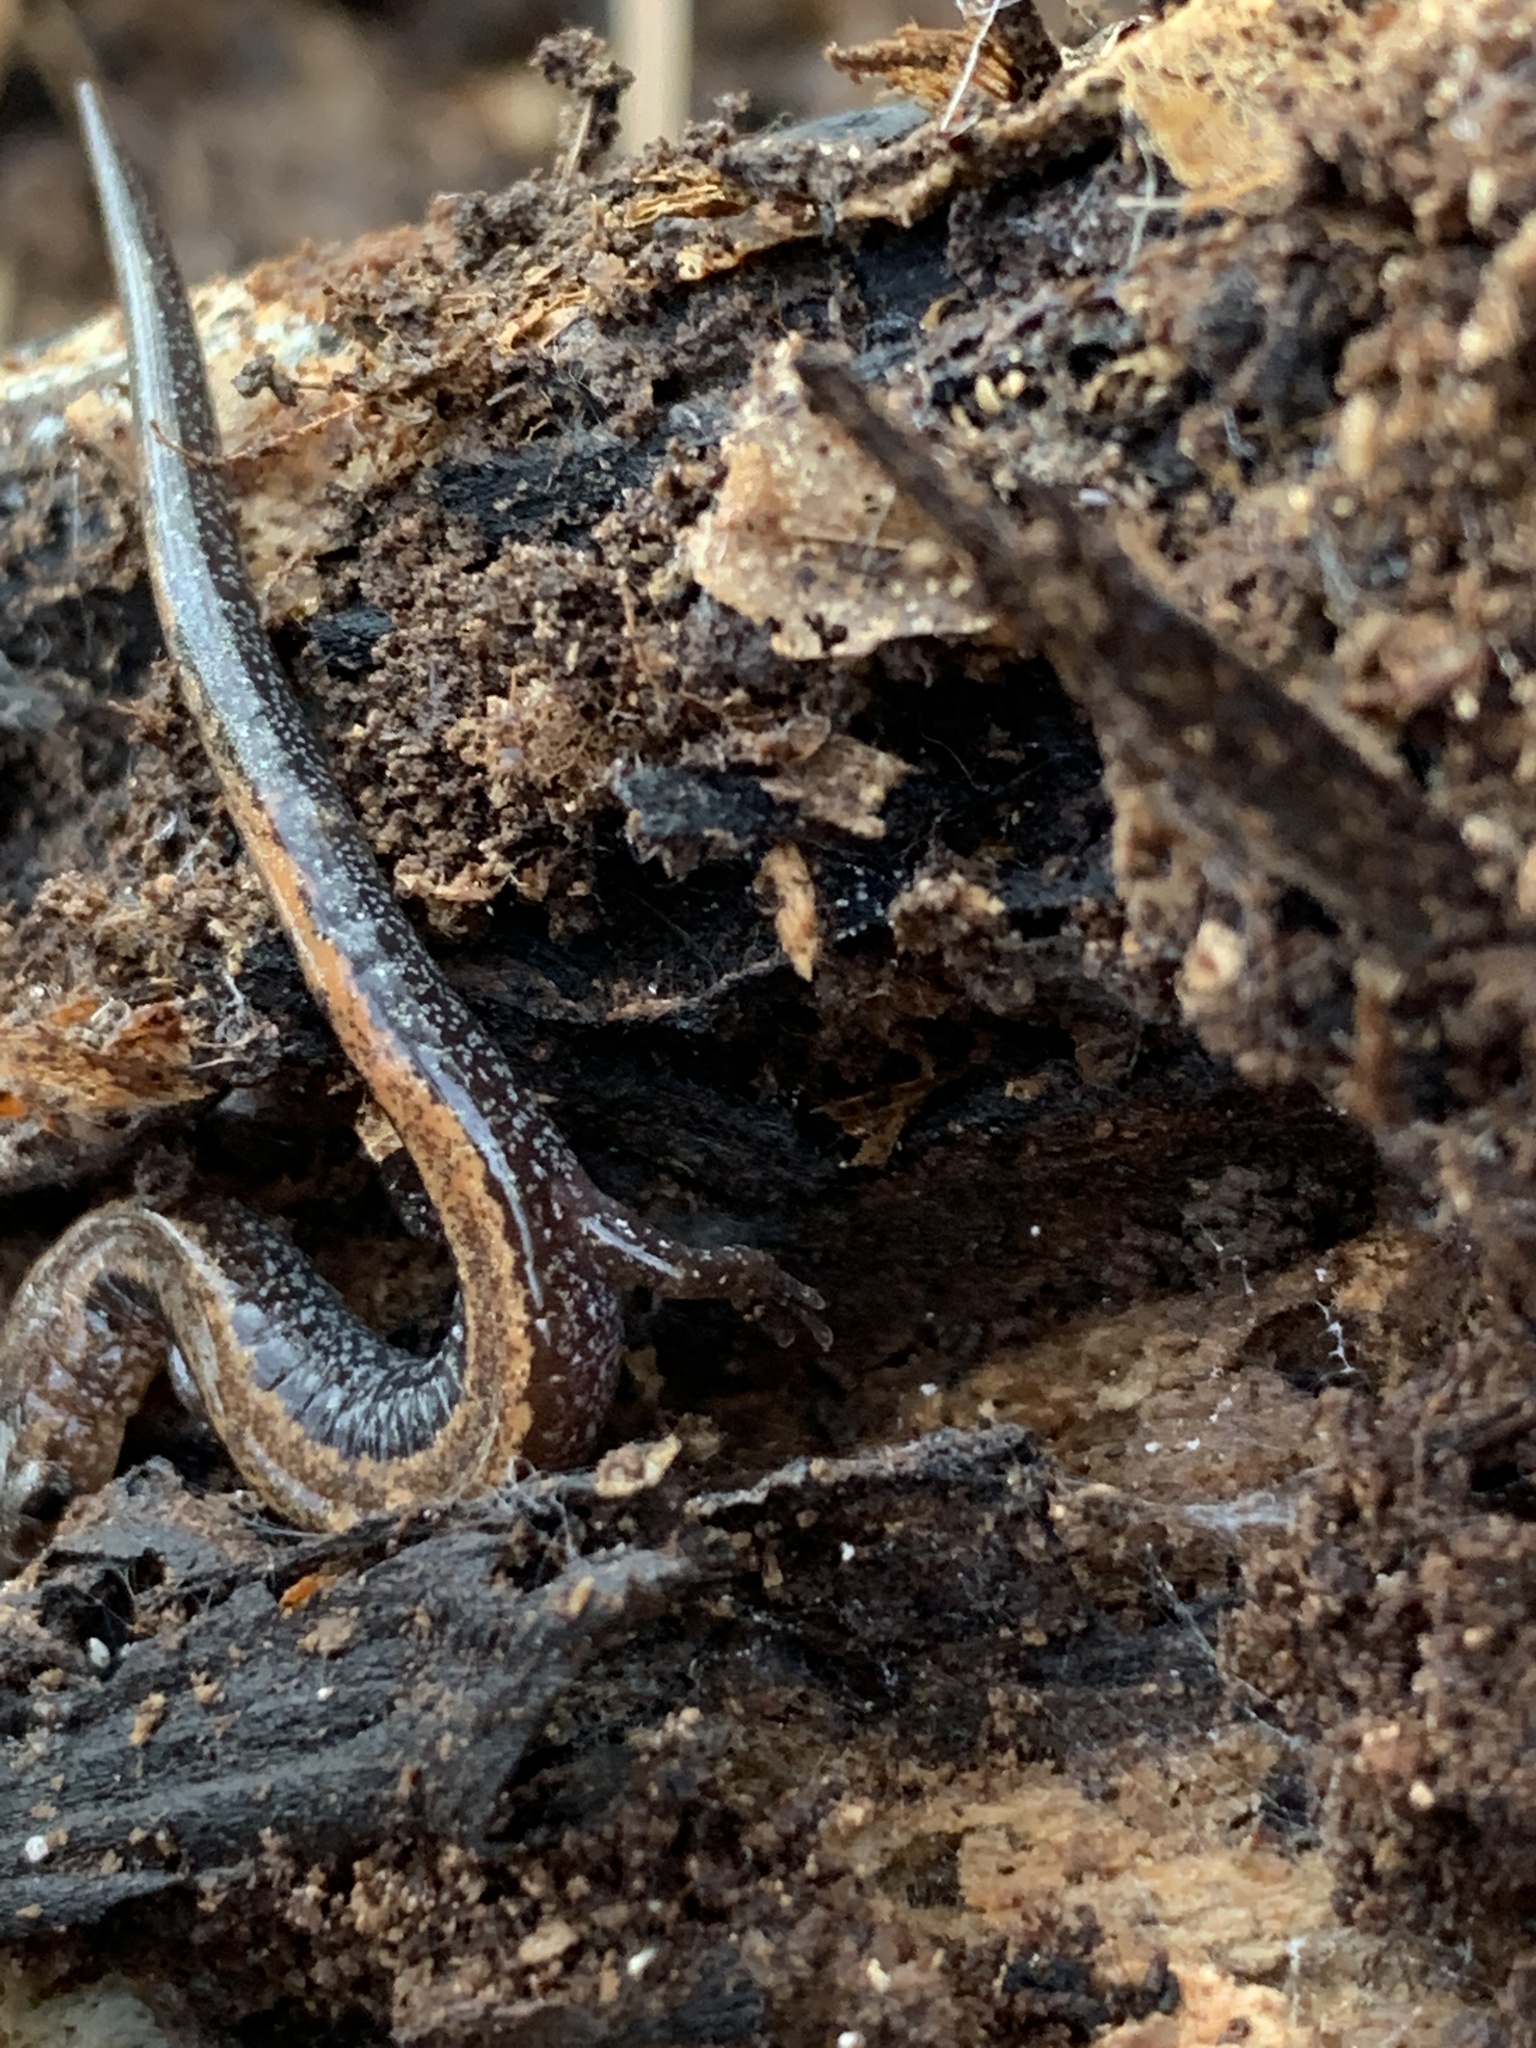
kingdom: Animalia
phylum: Chordata
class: Amphibia
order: Caudata
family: Plethodontidae
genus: Plethodon
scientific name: Plethodon cinereus
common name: Redback salamander
